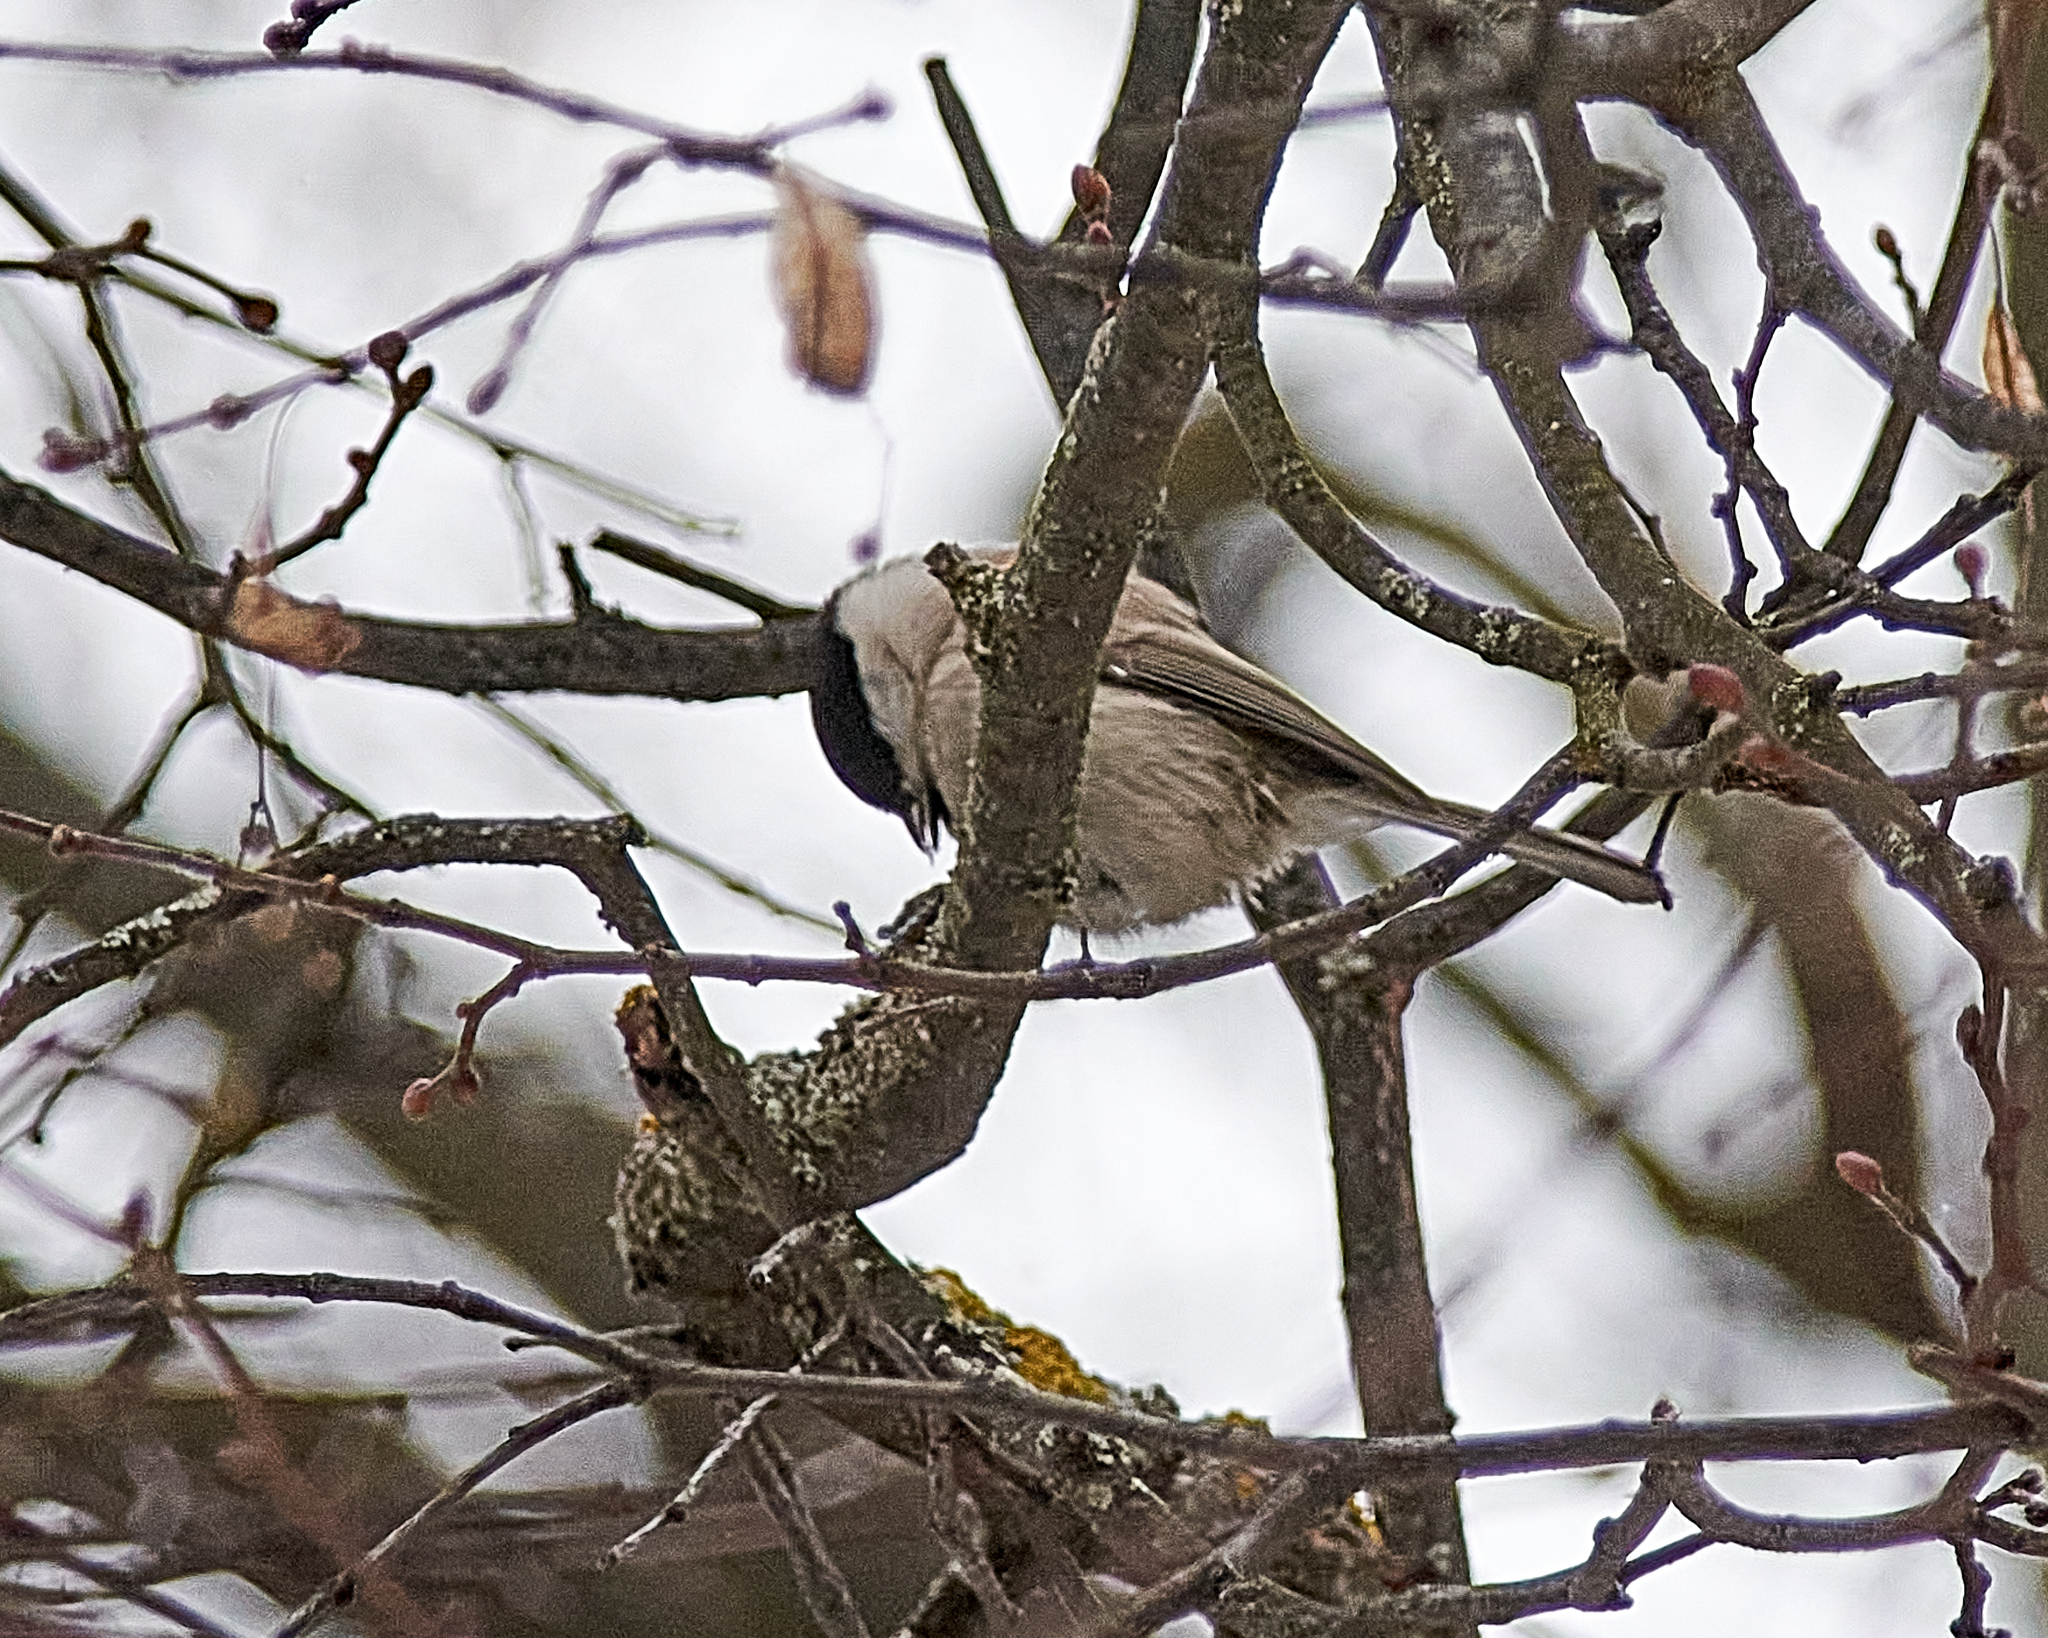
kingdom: Animalia
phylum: Chordata
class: Aves
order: Passeriformes
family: Paridae
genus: Poecile
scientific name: Poecile palustris
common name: Marsh tit
